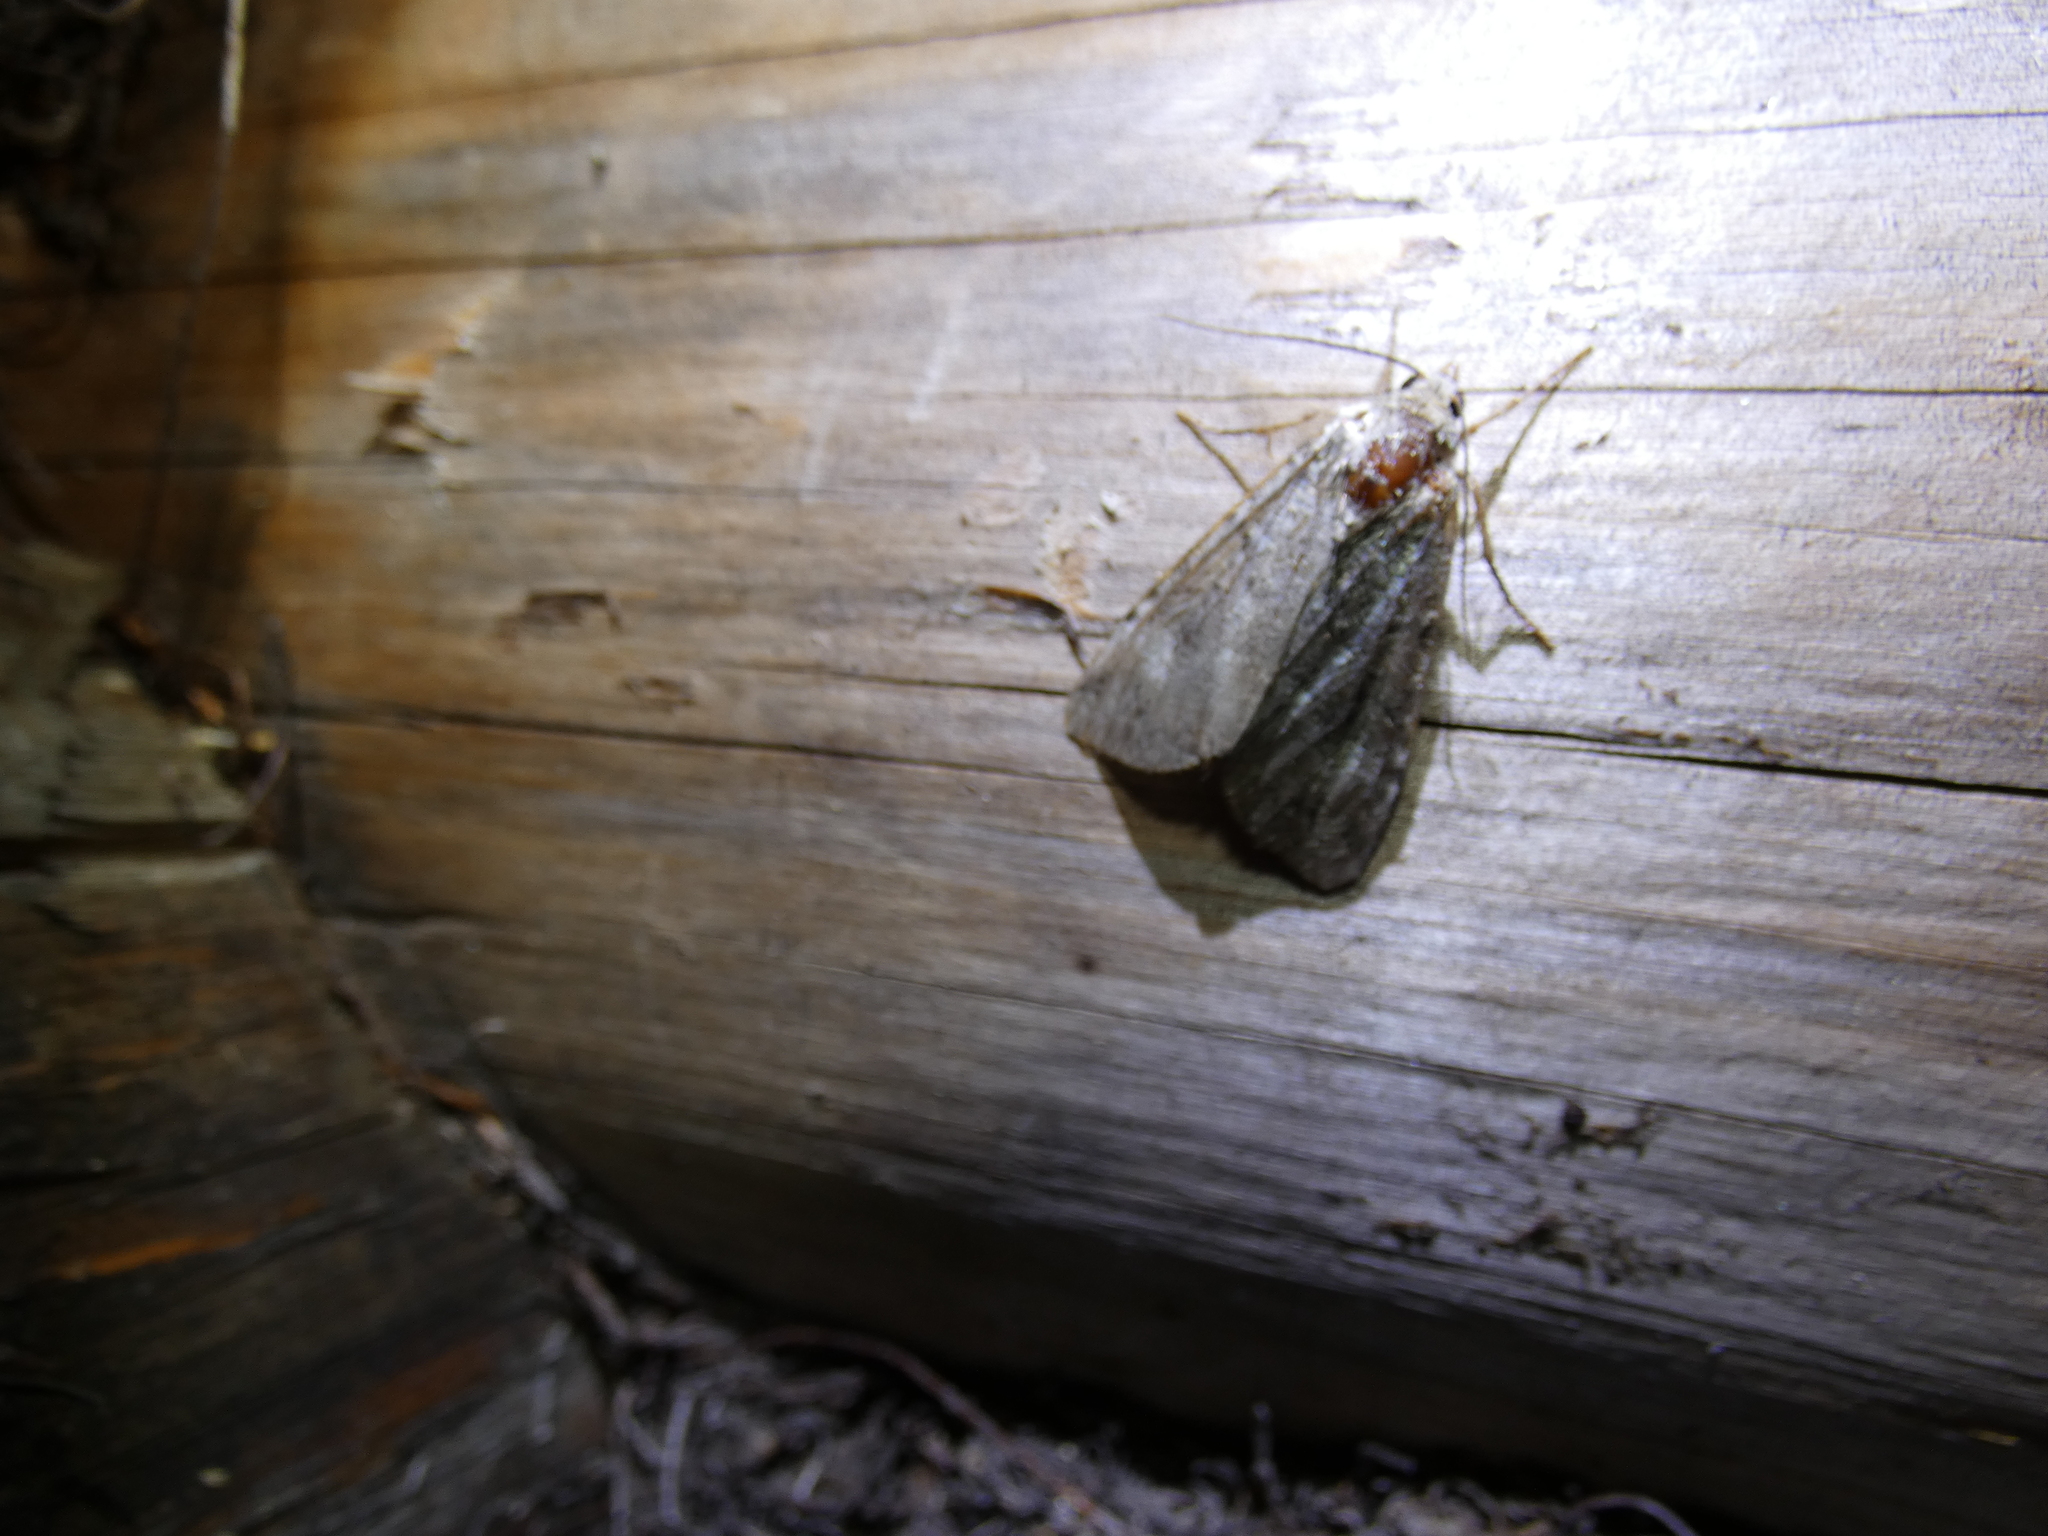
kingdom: Animalia
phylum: Arthropoda
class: Insecta
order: Lepidoptera
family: Noctuidae
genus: Anaplectoides
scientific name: Anaplectoides prasina
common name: Green arches
